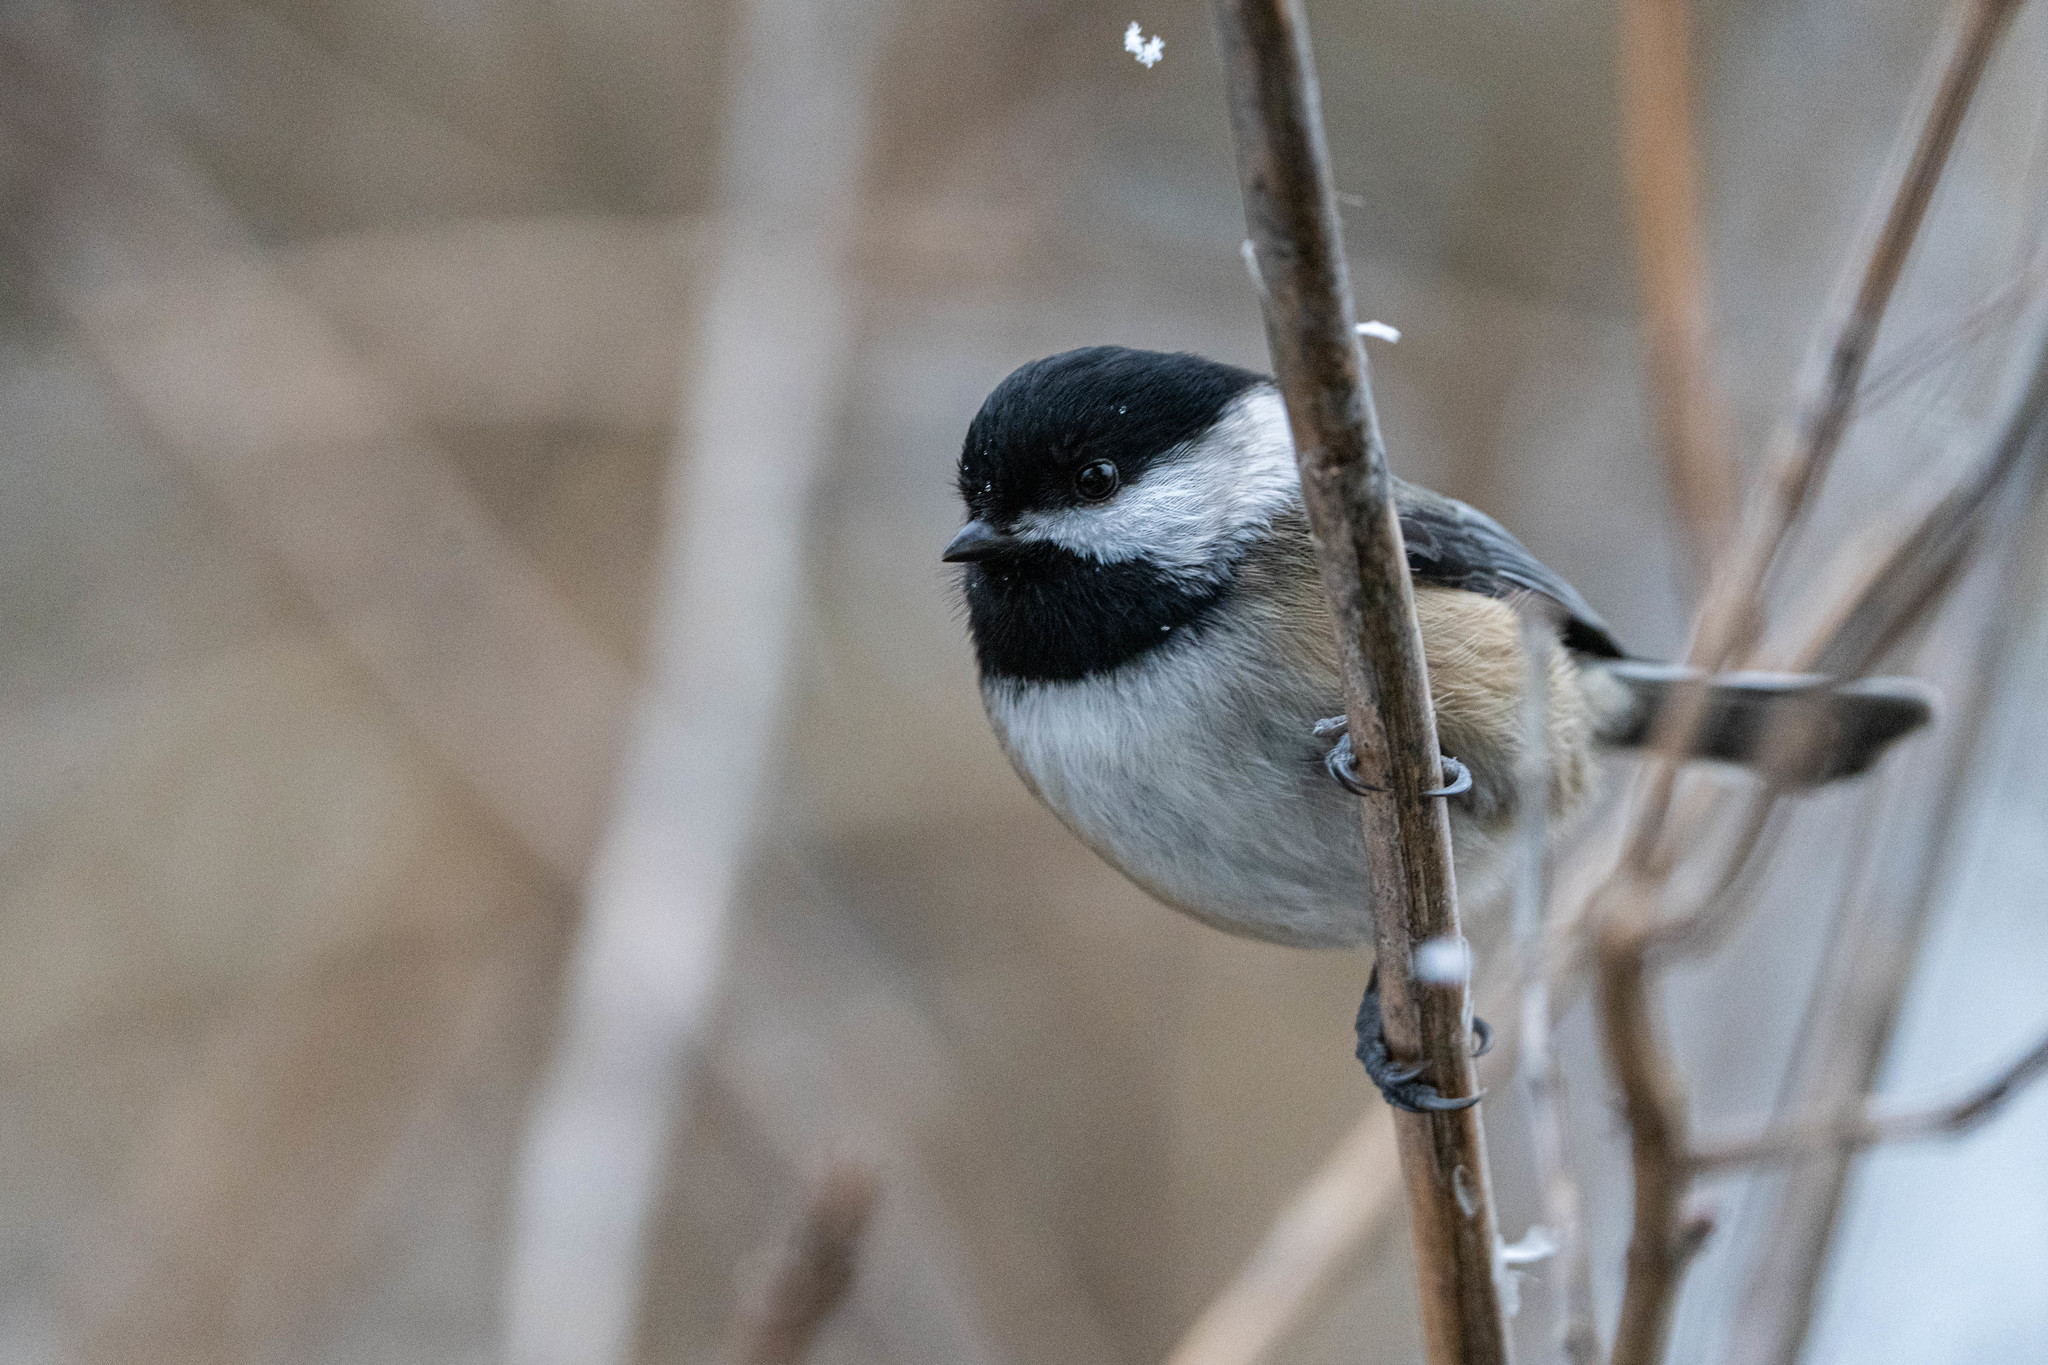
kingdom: Animalia
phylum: Chordata
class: Aves
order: Passeriformes
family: Paridae
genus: Poecile
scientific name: Poecile atricapillus
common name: Black-capped chickadee
